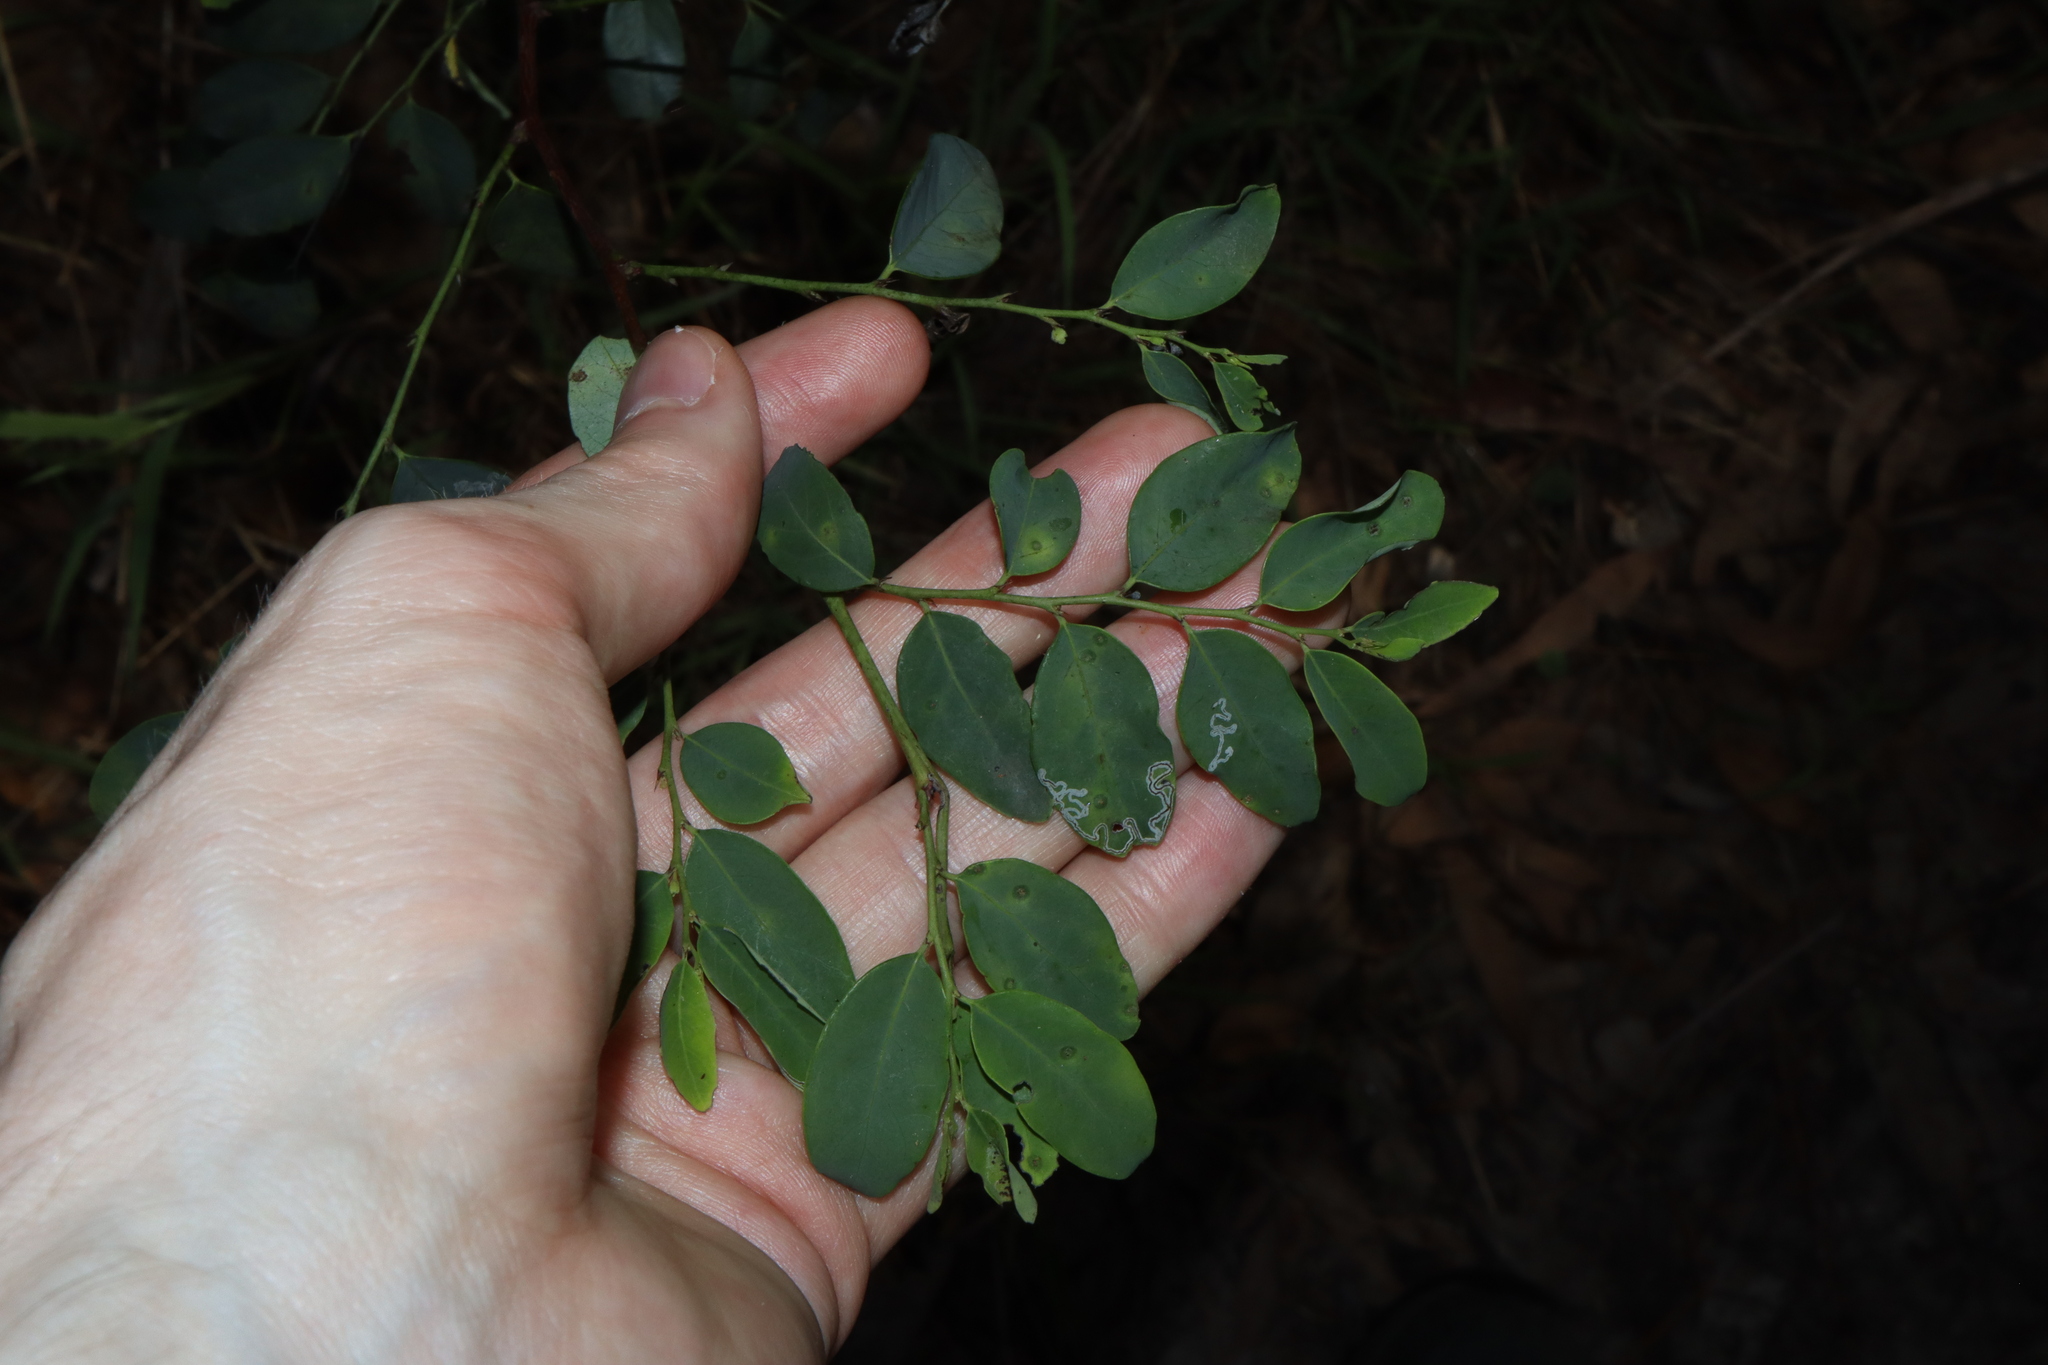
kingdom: Plantae
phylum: Tracheophyta
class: Magnoliopsida
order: Malpighiales
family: Phyllanthaceae
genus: Breynia
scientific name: Breynia oblongifolia
